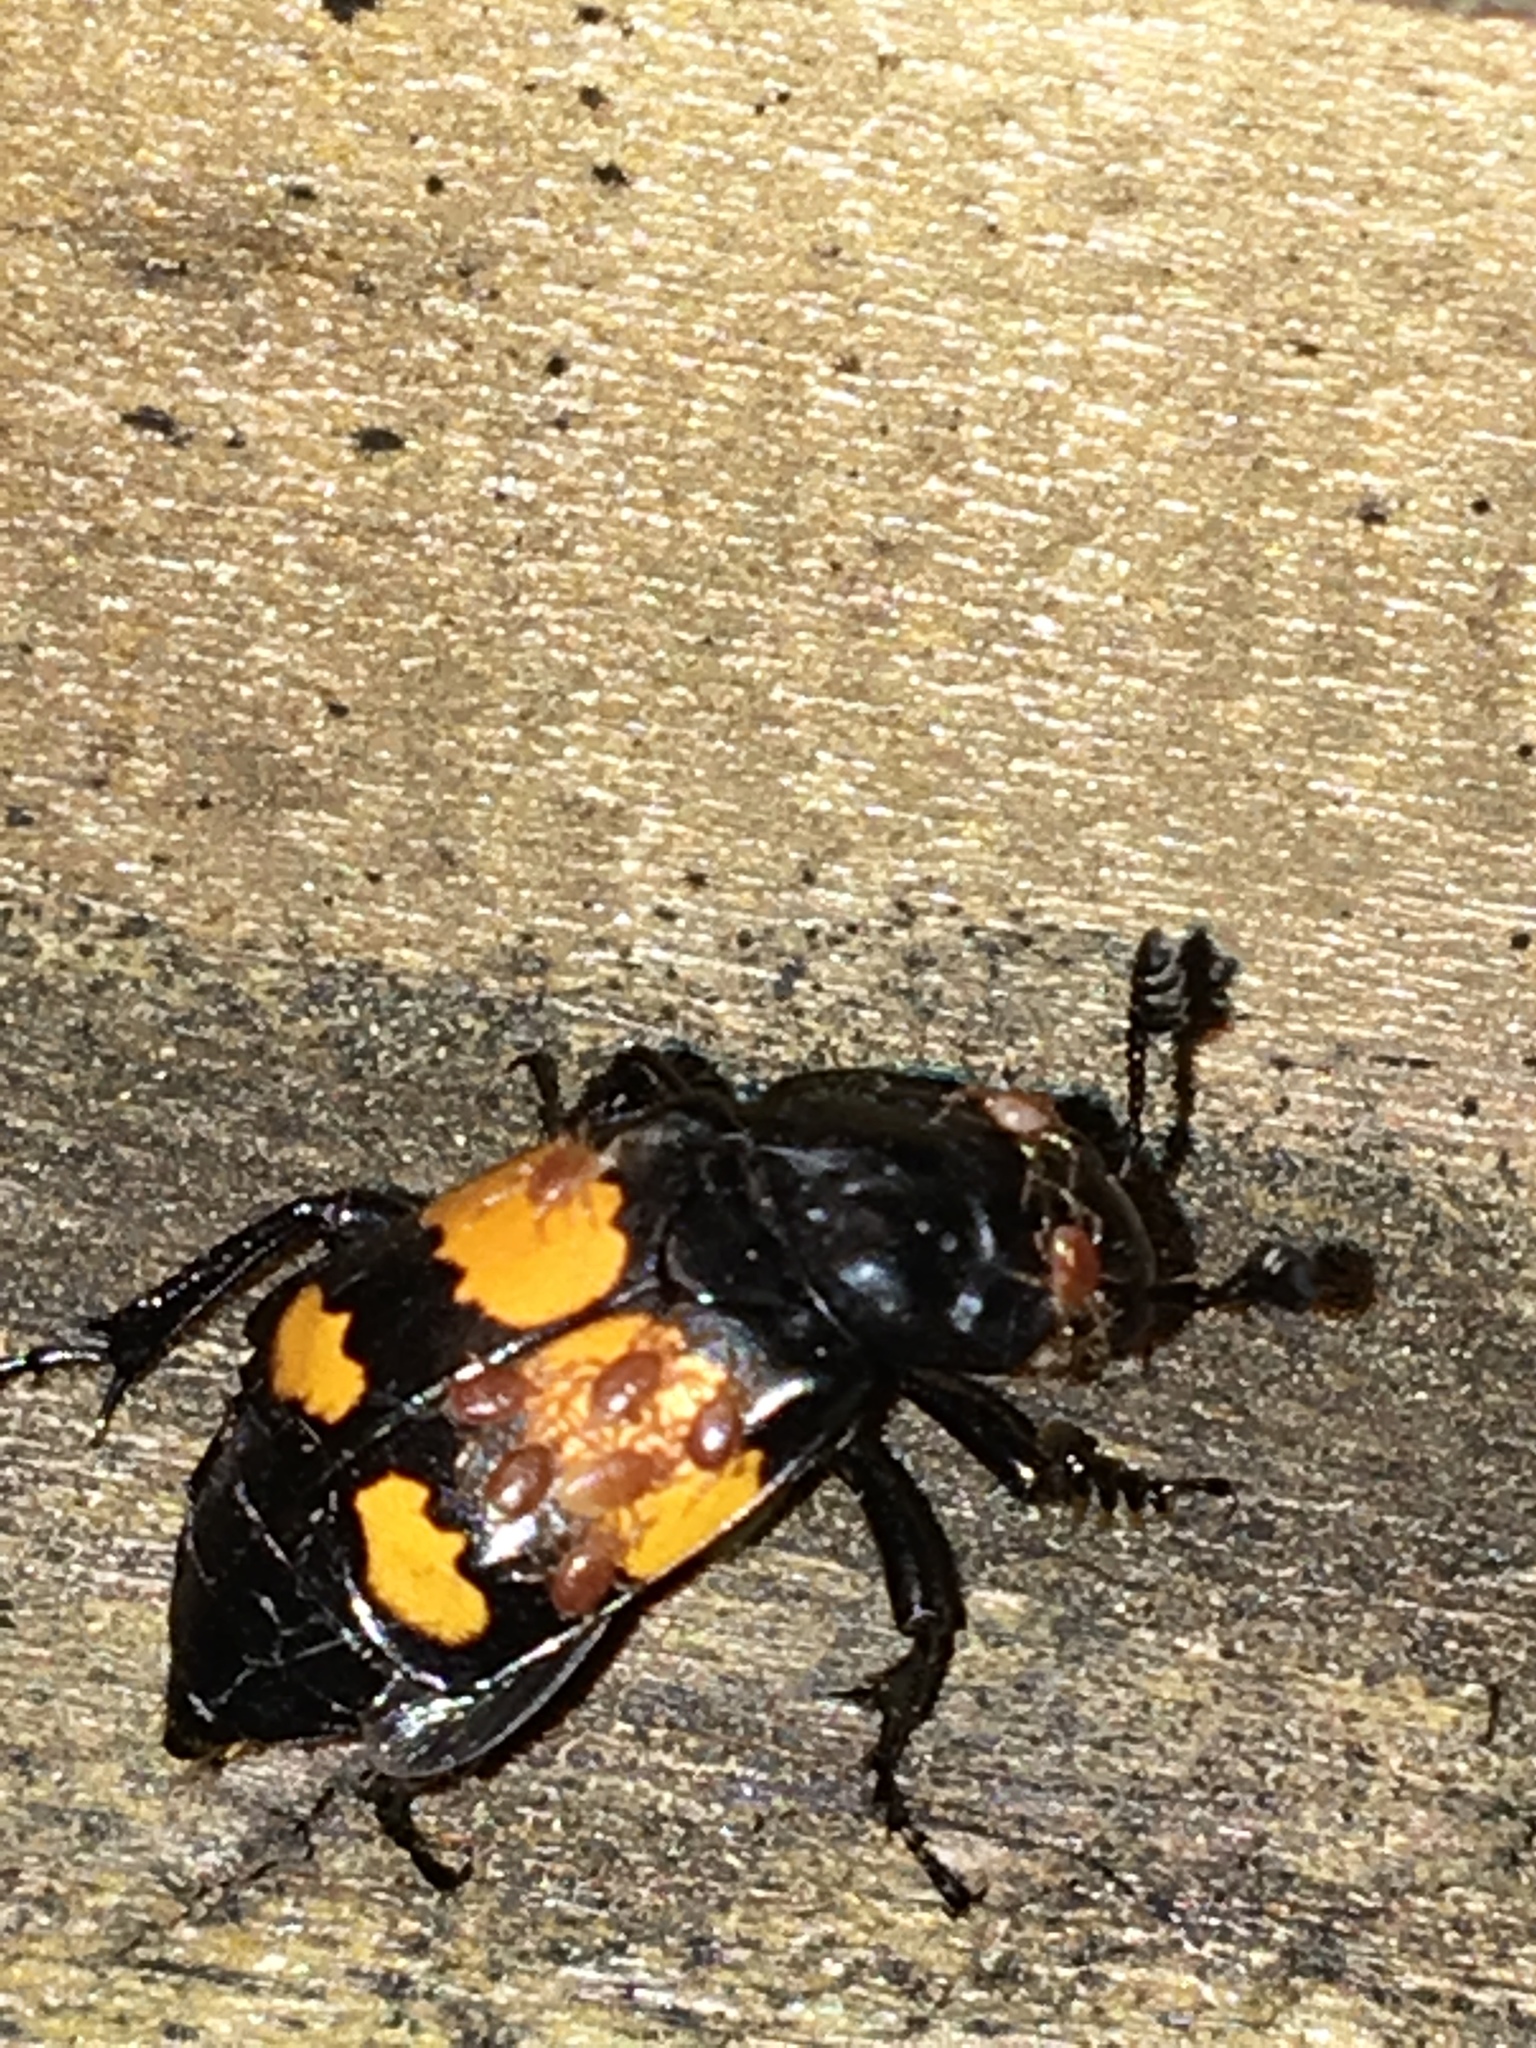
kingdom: Animalia
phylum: Arthropoda
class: Insecta
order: Coleoptera
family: Staphylinidae
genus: Nicrophorus
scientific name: Nicrophorus defodiens
